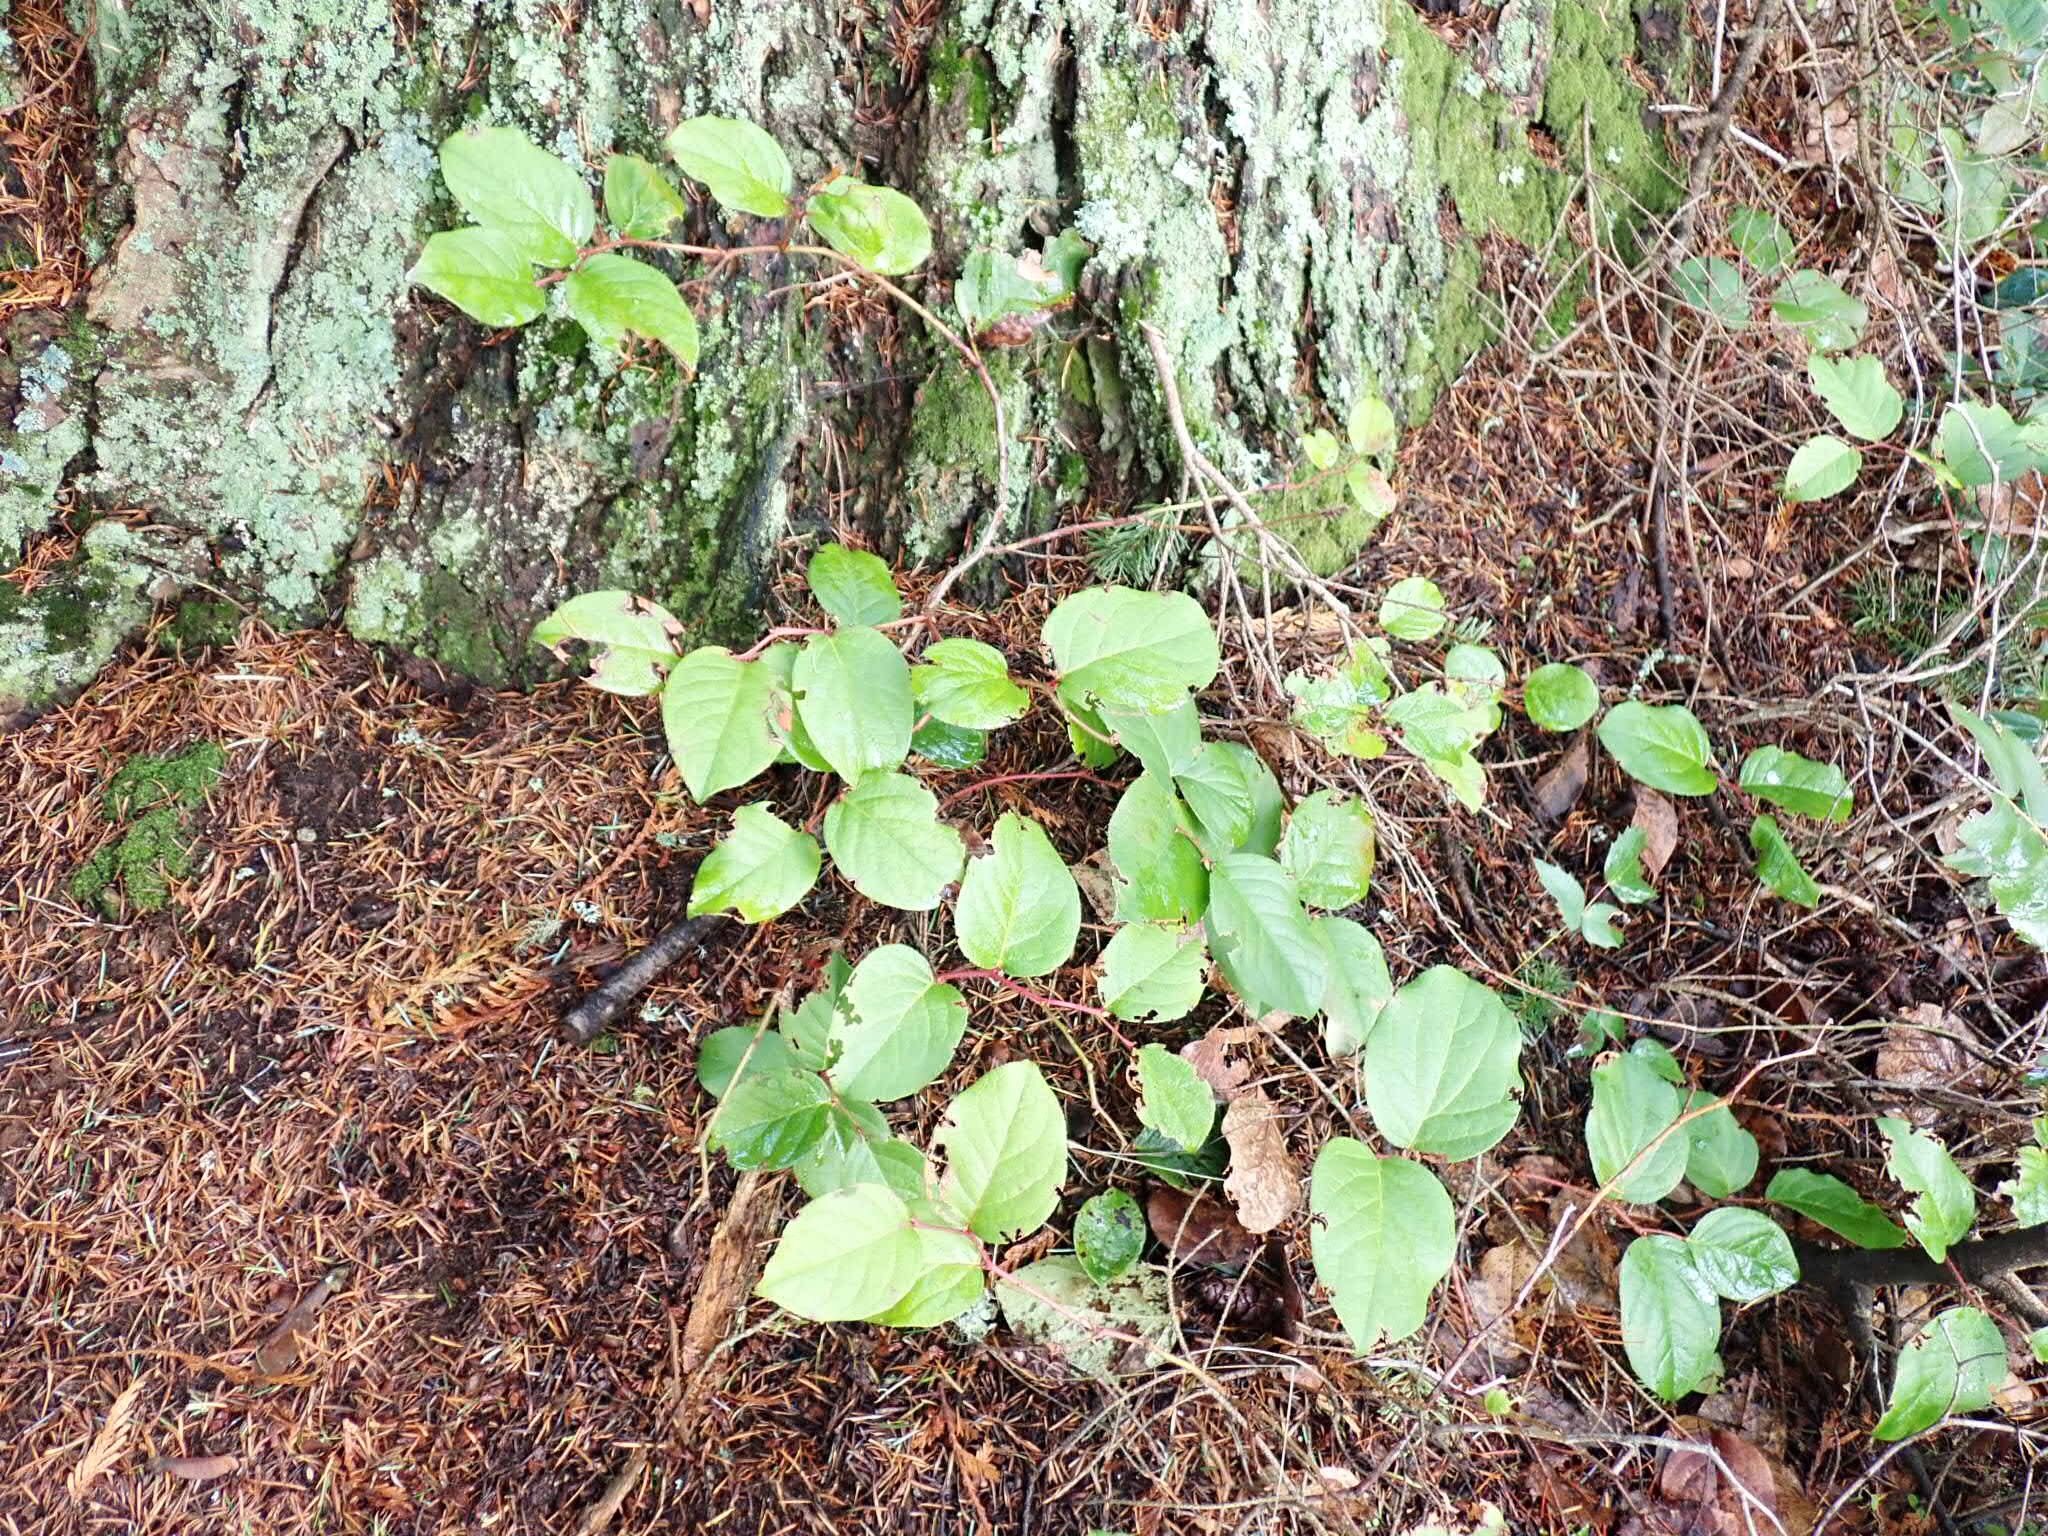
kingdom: Plantae
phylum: Tracheophyta
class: Magnoliopsida
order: Ericales
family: Ericaceae
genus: Gaultheria
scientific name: Gaultheria shallon
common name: Shallon
